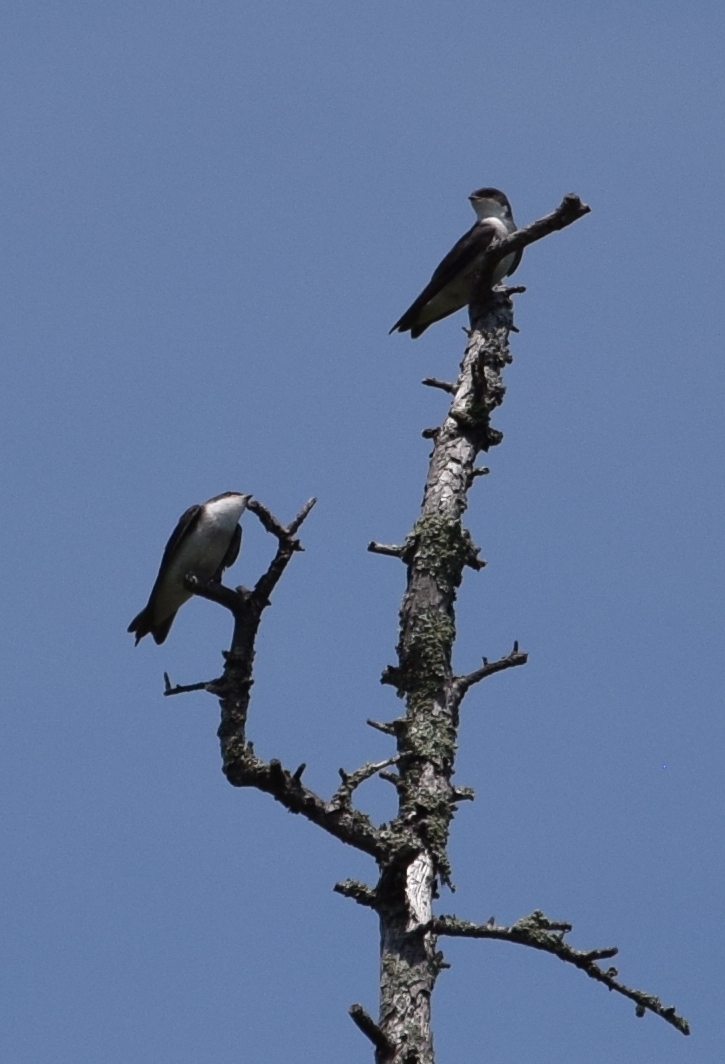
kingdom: Animalia
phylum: Chordata
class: Aves
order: Passeriformes
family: Hirundinidae
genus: Tachycineta
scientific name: Tachycineta bicolor
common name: Tree swallow
